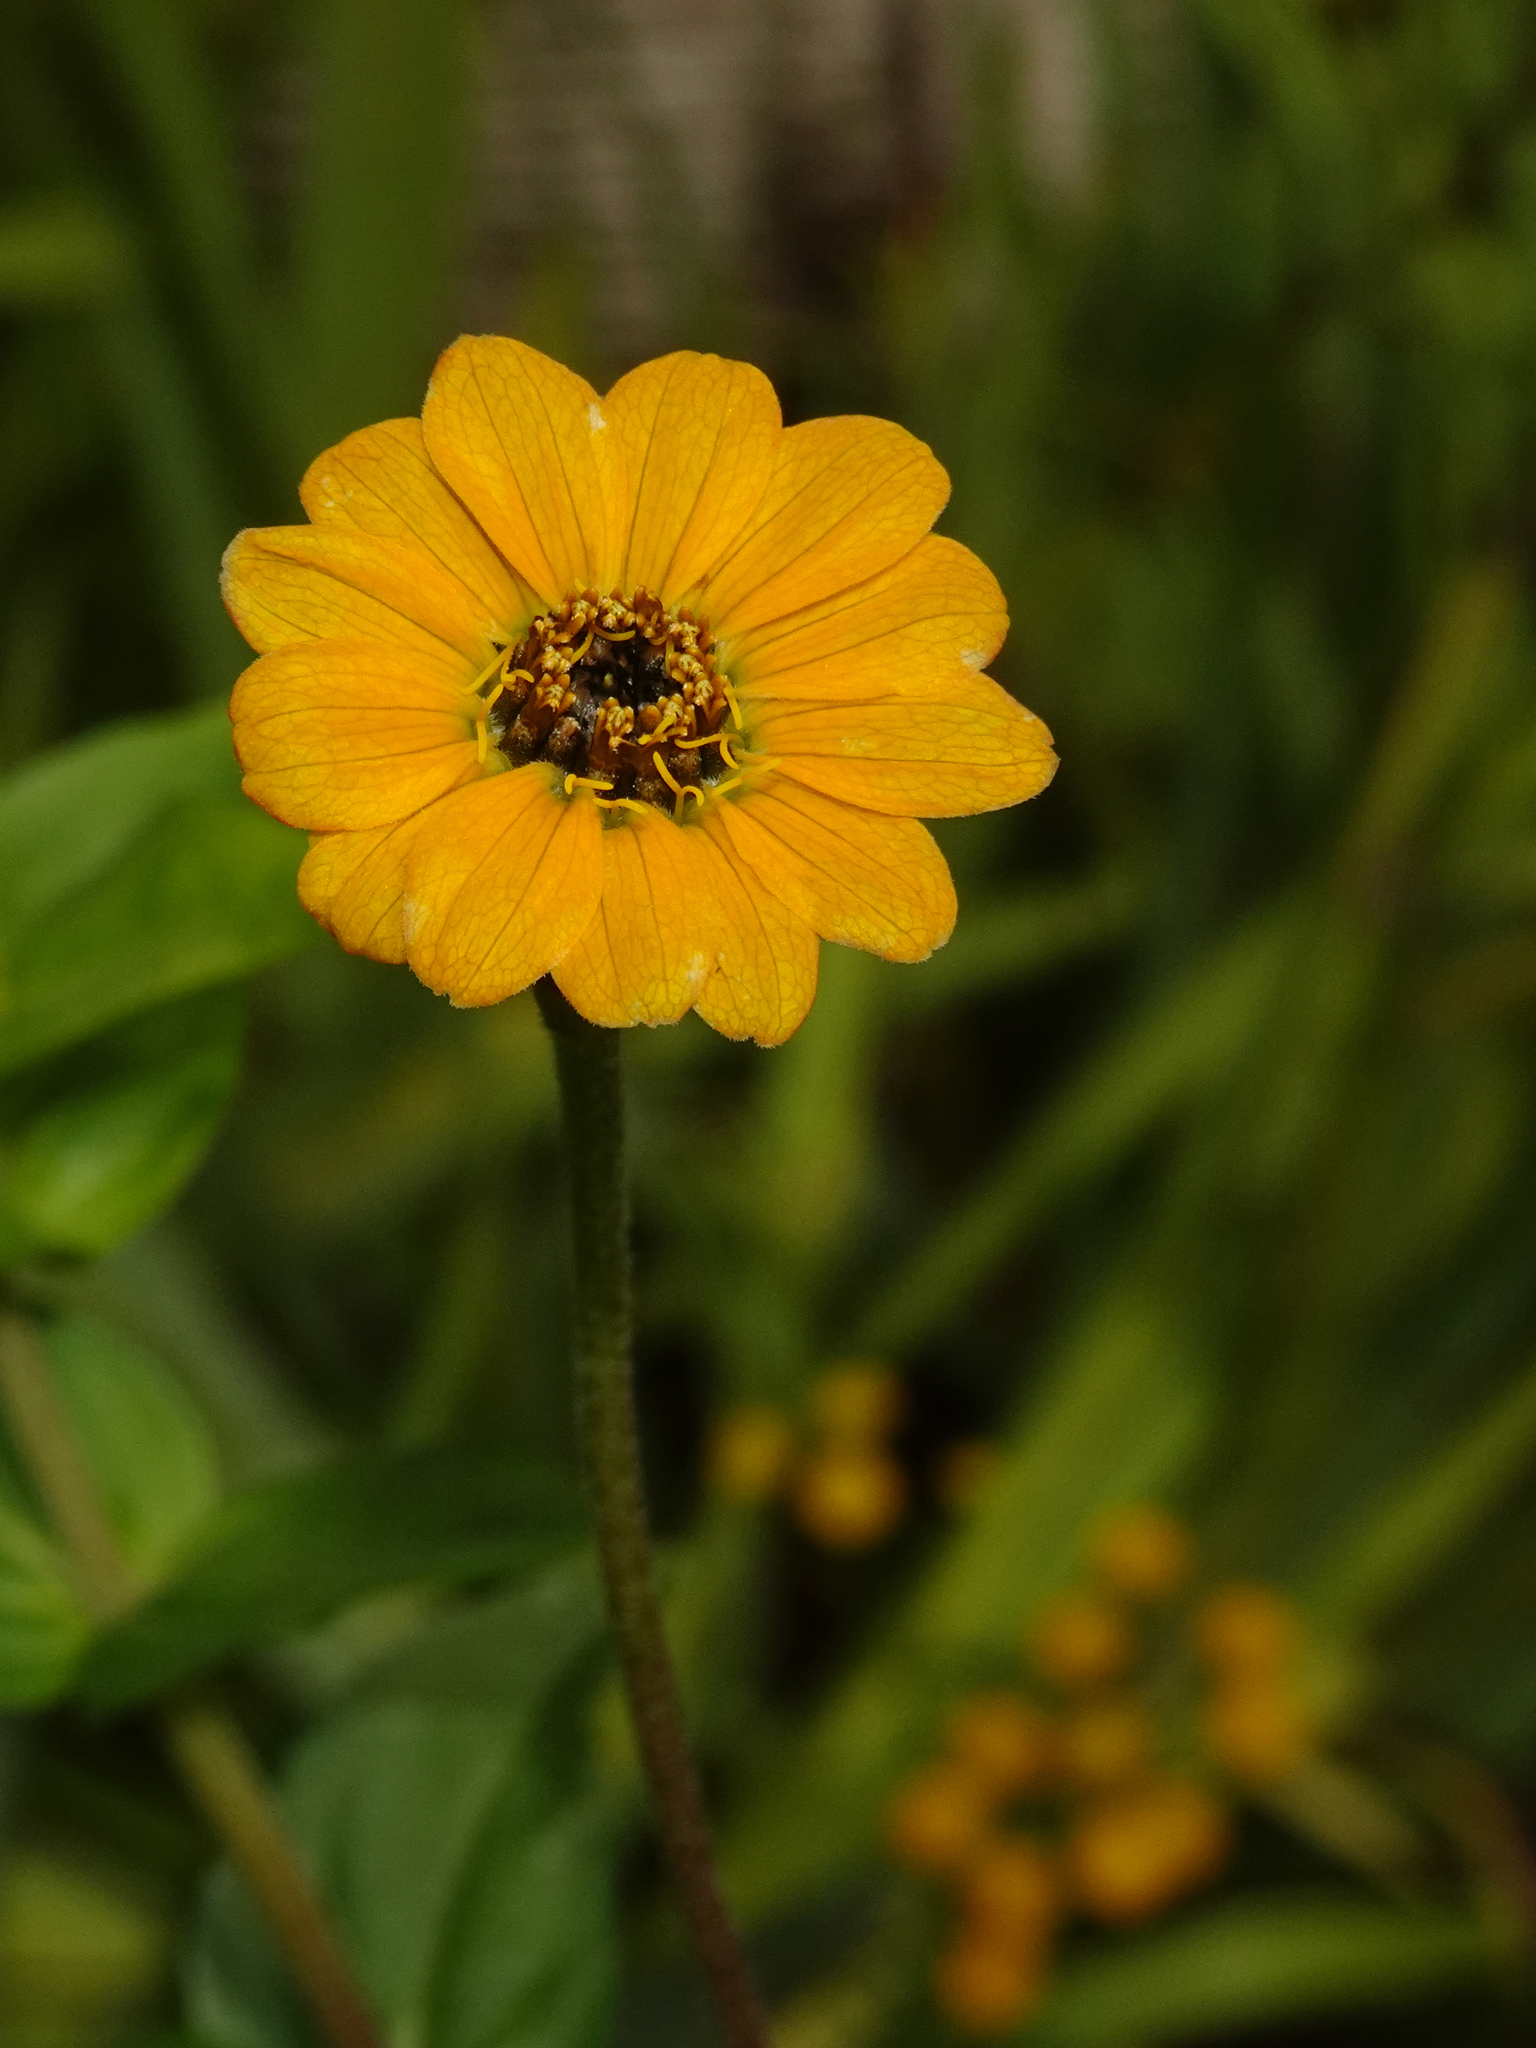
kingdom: Plantae
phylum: Tracheophyta
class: Magnoliopsida
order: Asterales
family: Asteraceae
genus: Zinnia
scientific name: Zinnia elegans
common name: Youth-and-age
